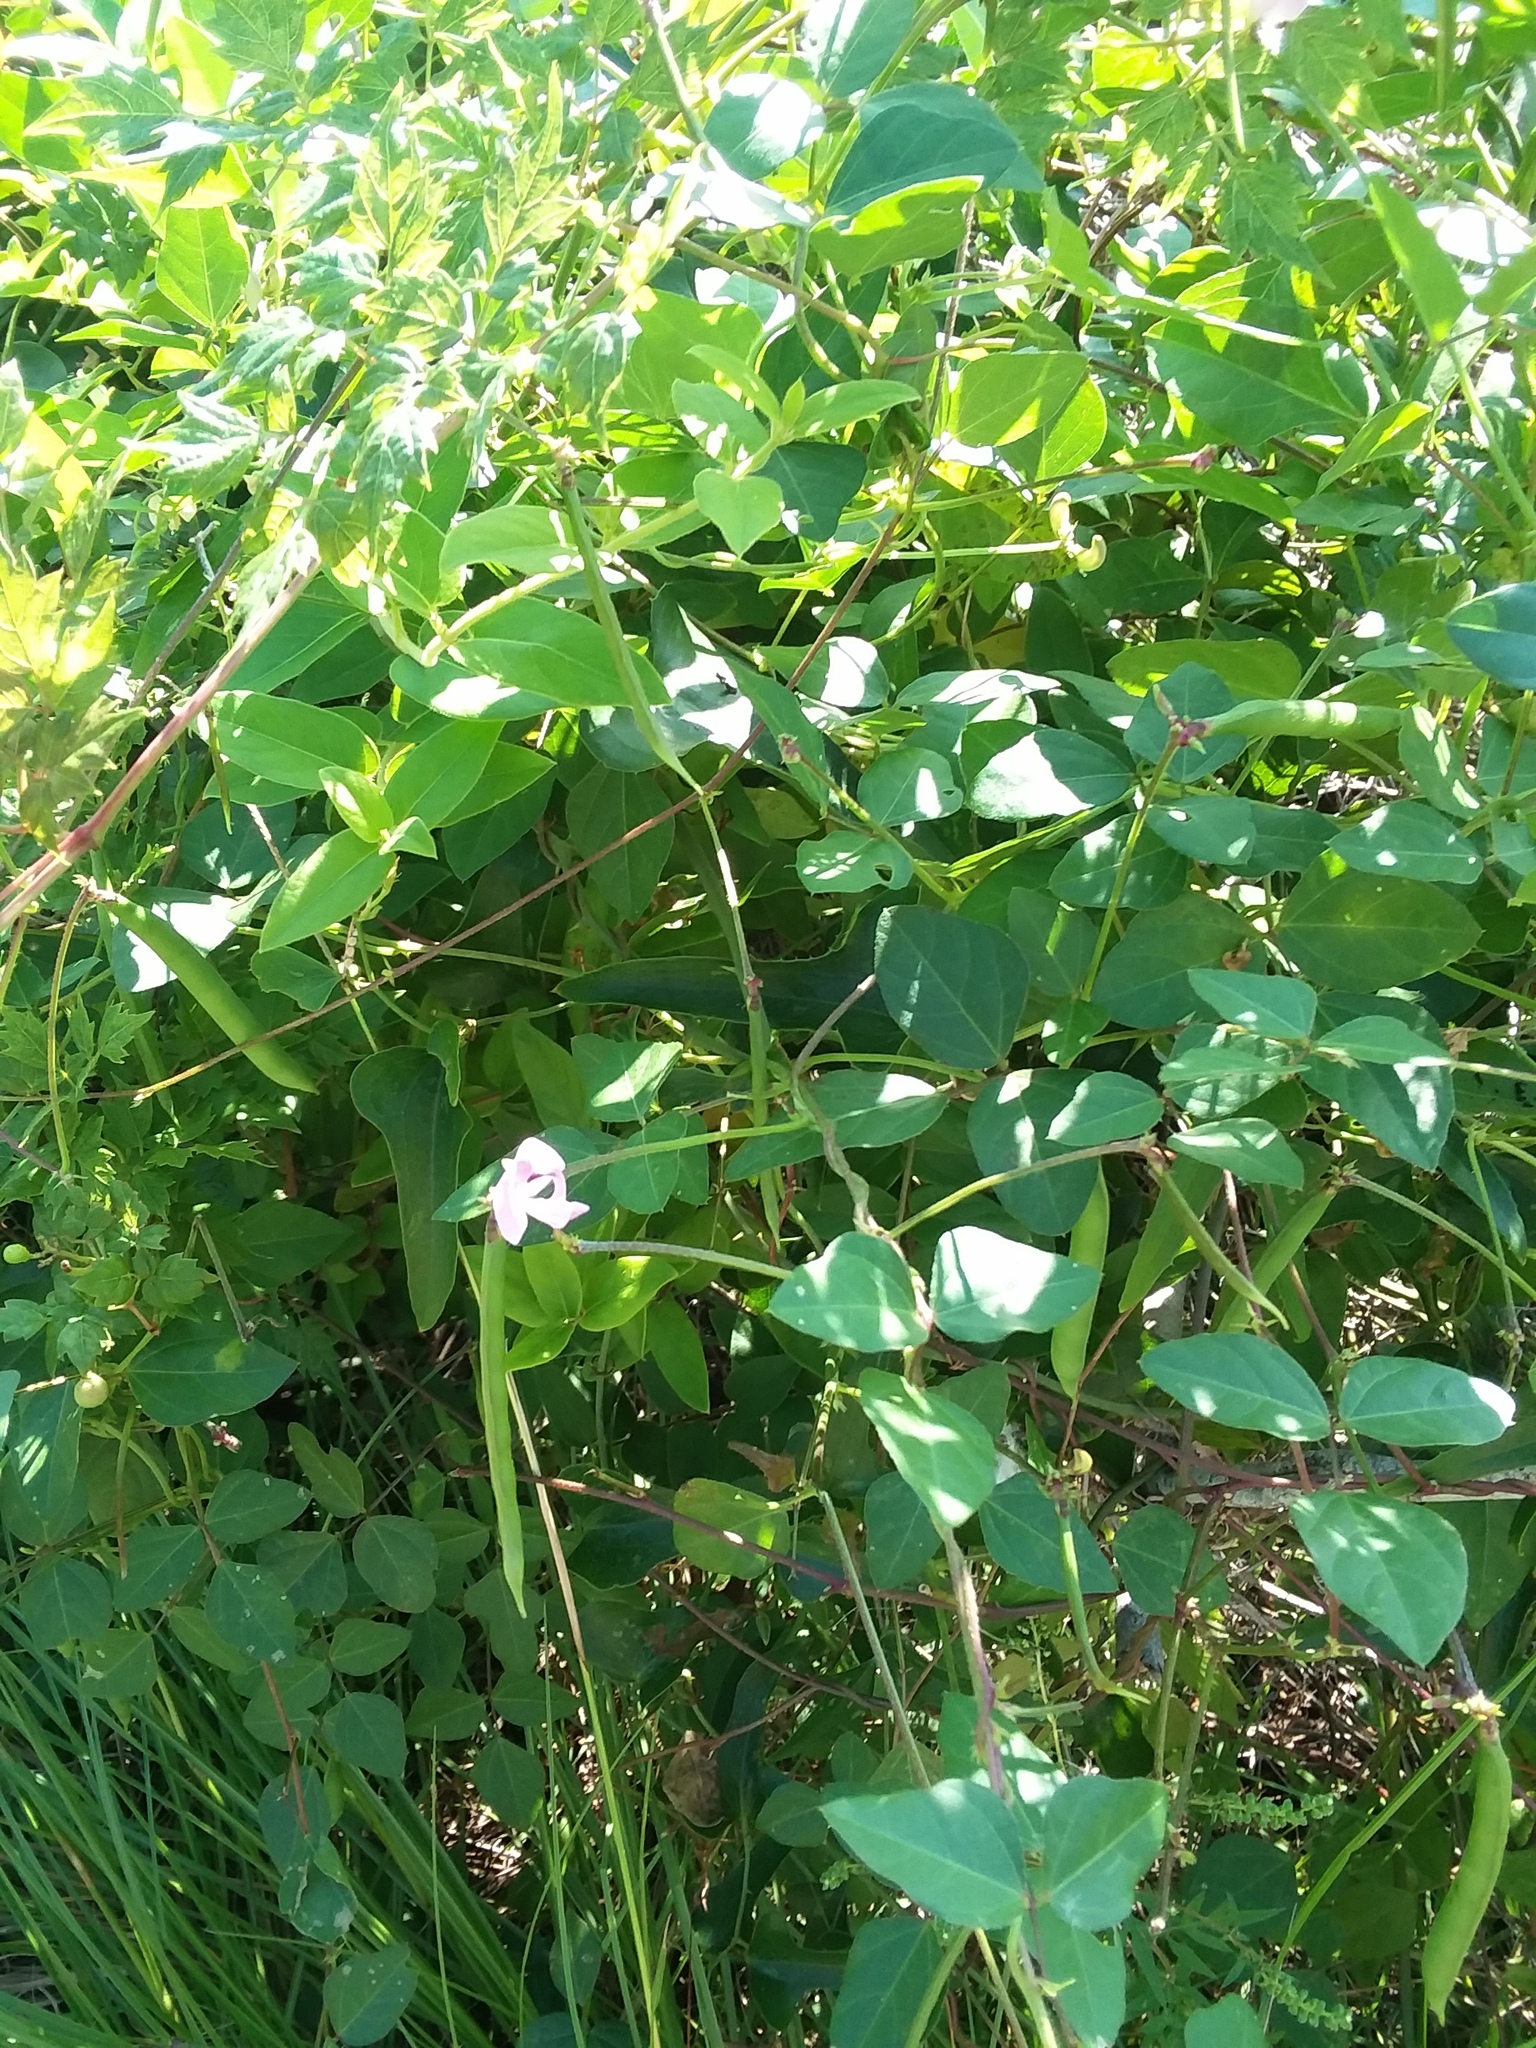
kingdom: Plantae
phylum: Tracheophyta
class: Magnoliopsida
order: Fabales
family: Fabaceae
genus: Strophostyles
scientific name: Strophostyles helvola
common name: Trailing wild bean
